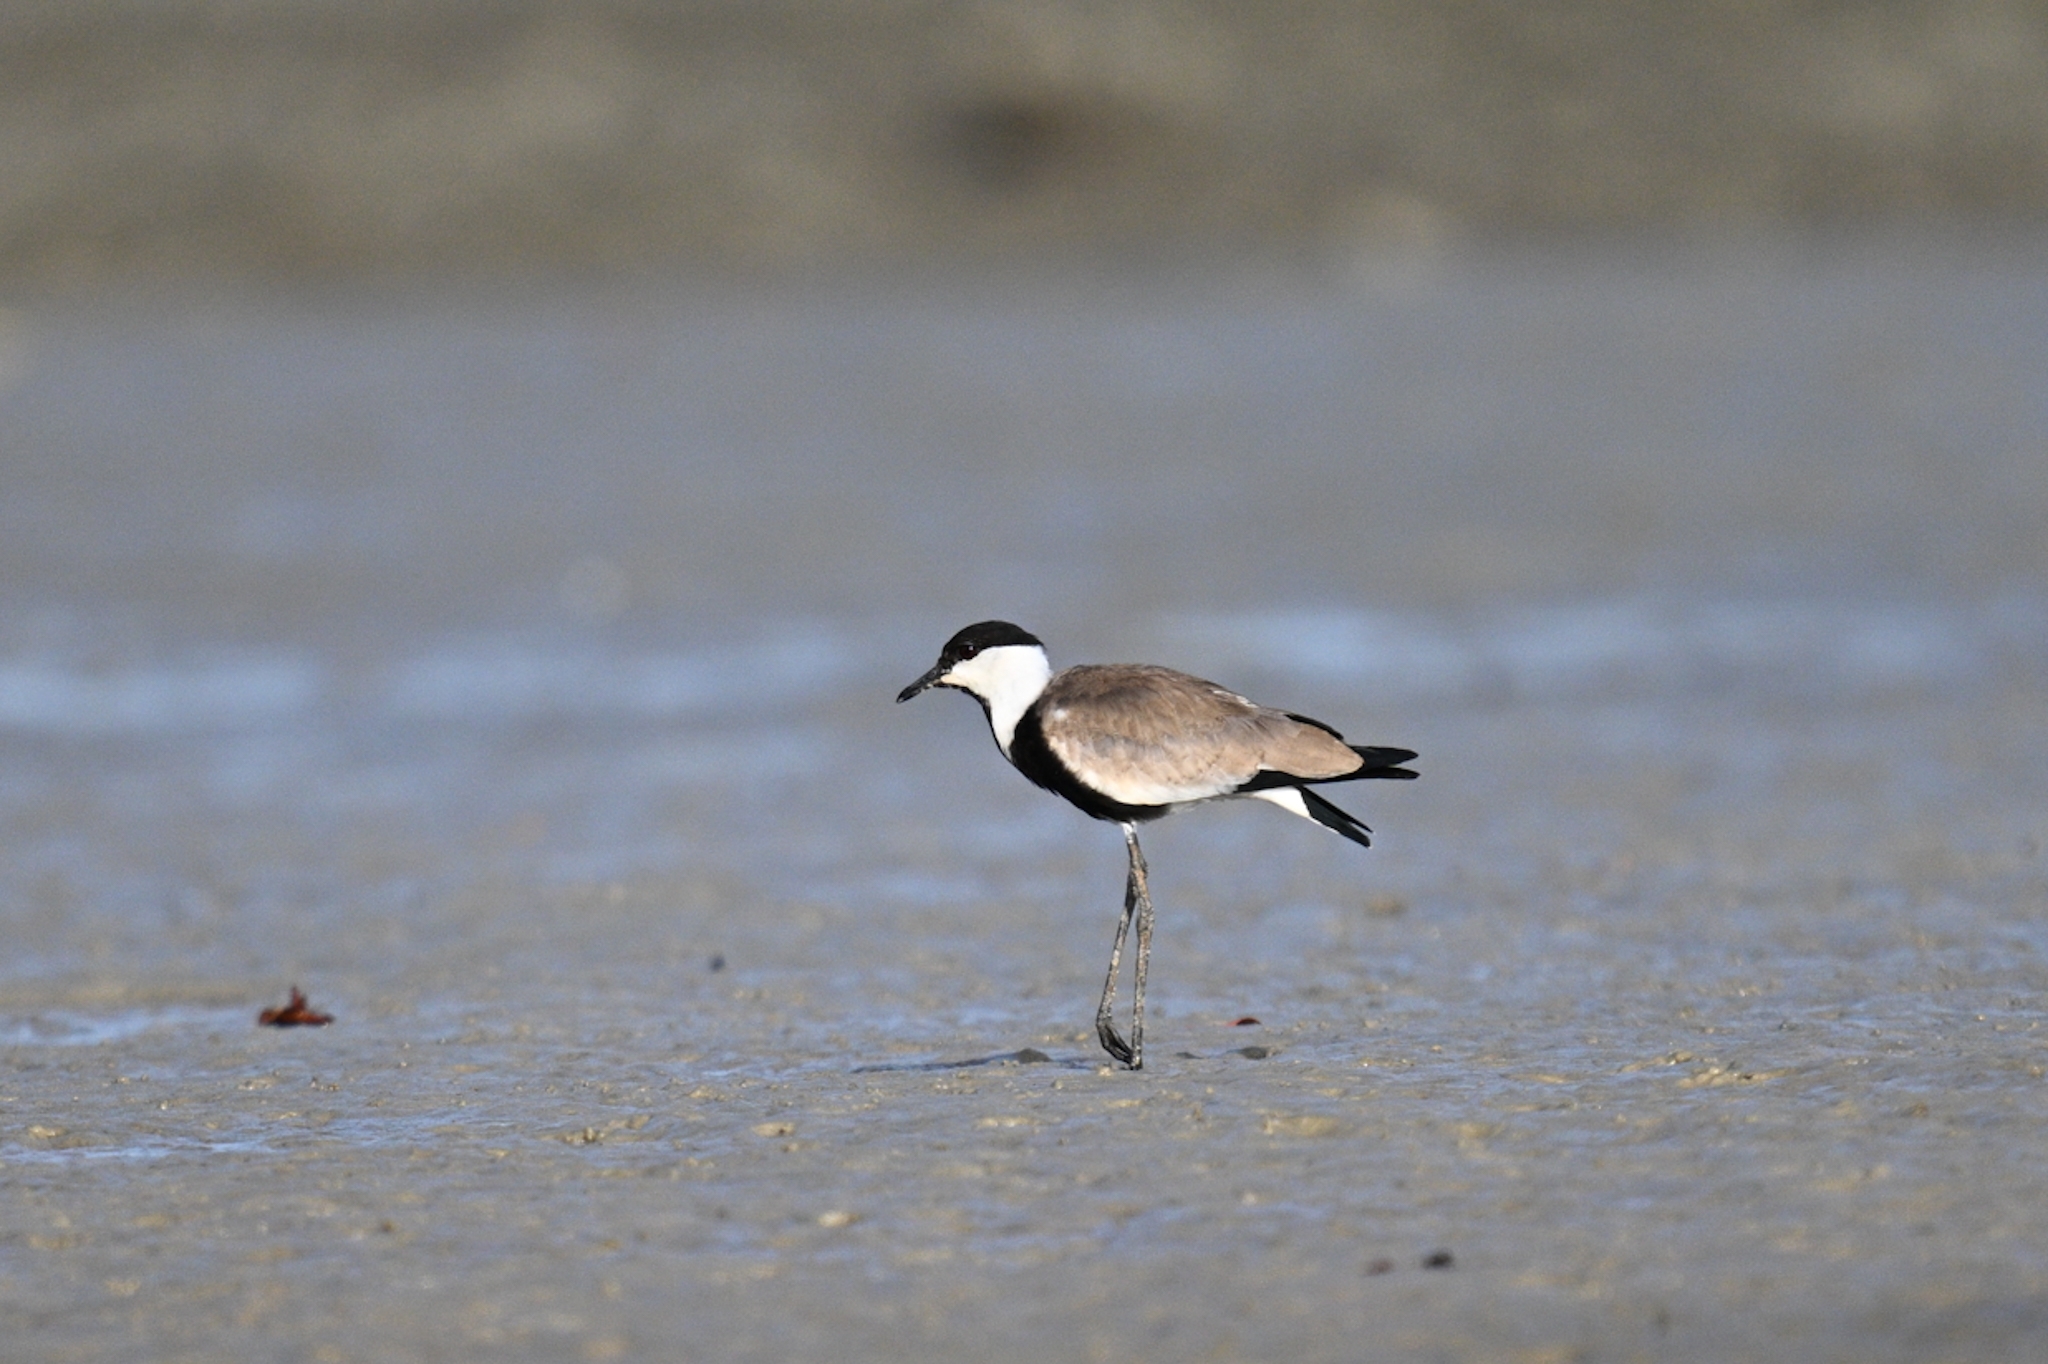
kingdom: Animalia
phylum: Chordata
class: Aves
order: Charadriiformes
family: Charadriidae
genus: Vanellus
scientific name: Vanellus spinosus
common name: Spur-winged lapwing
